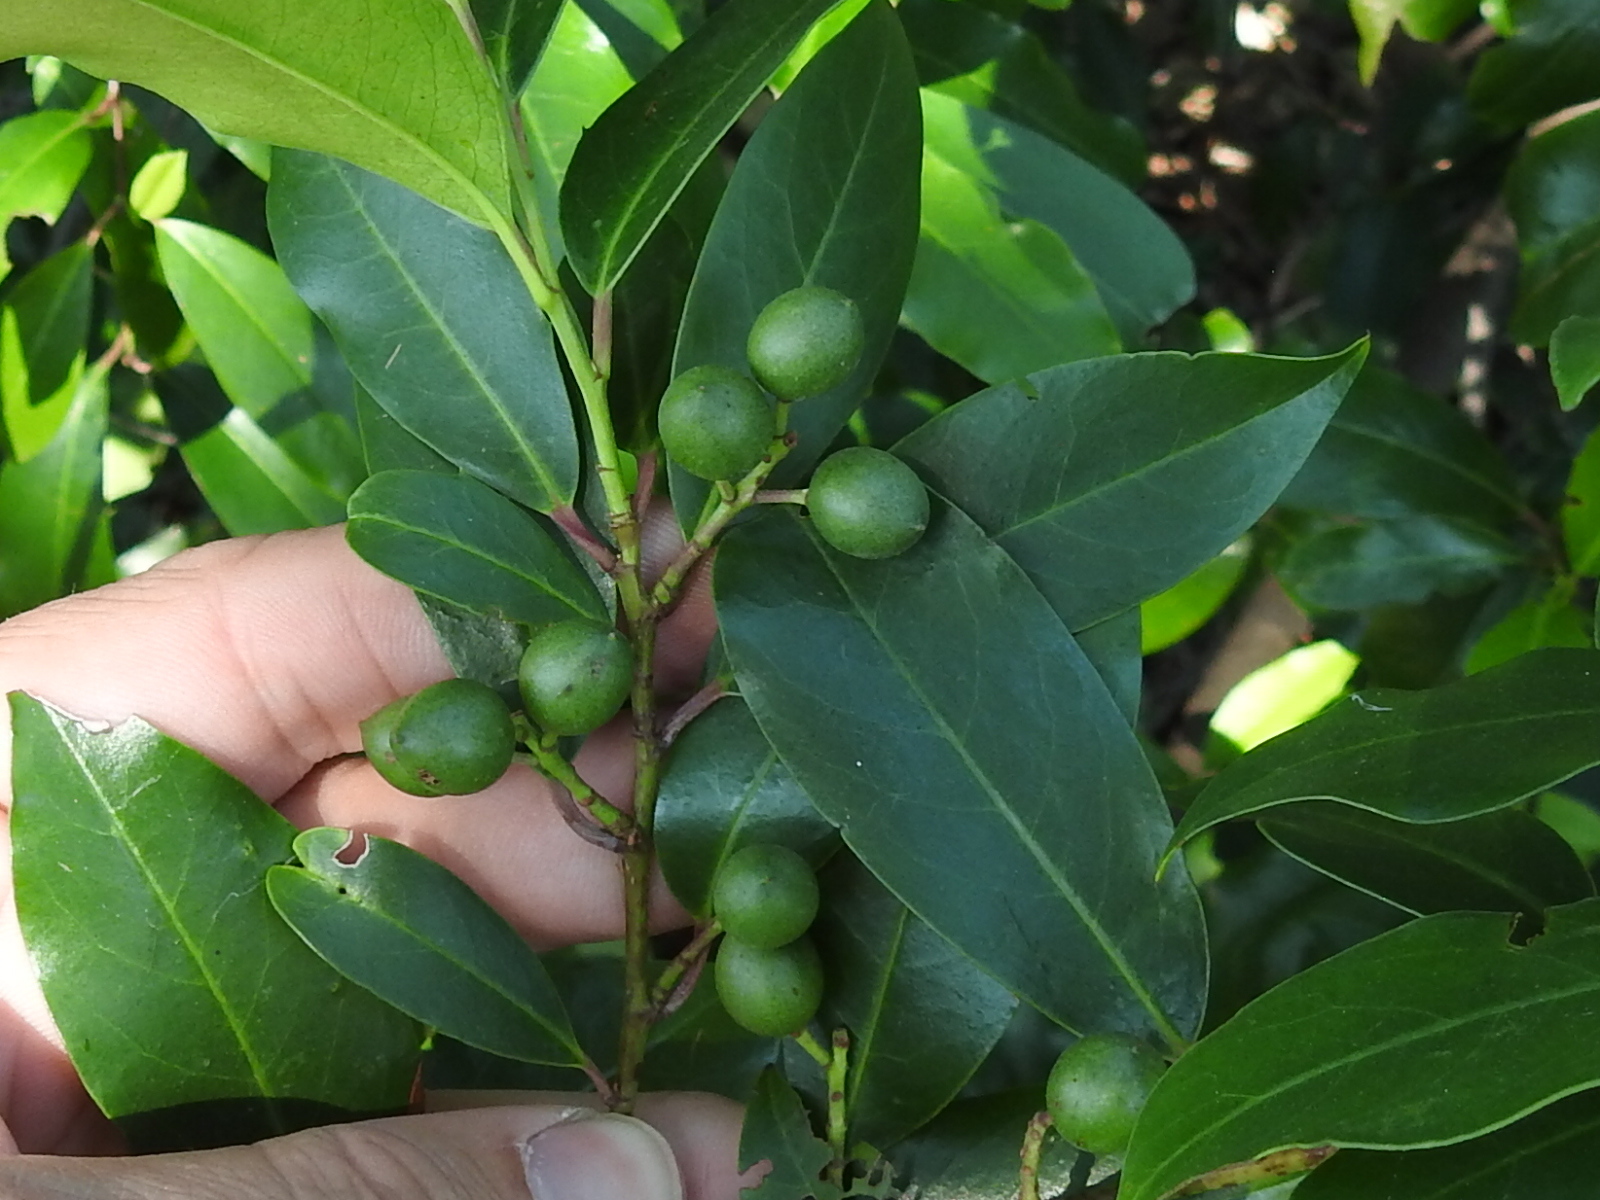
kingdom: Plantae
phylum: Tracheophyta
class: Magnoliopsida
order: Rosales
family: Rosaceae
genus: Prunus
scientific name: Prunus caroliniana
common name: Carolina laurel cherry
